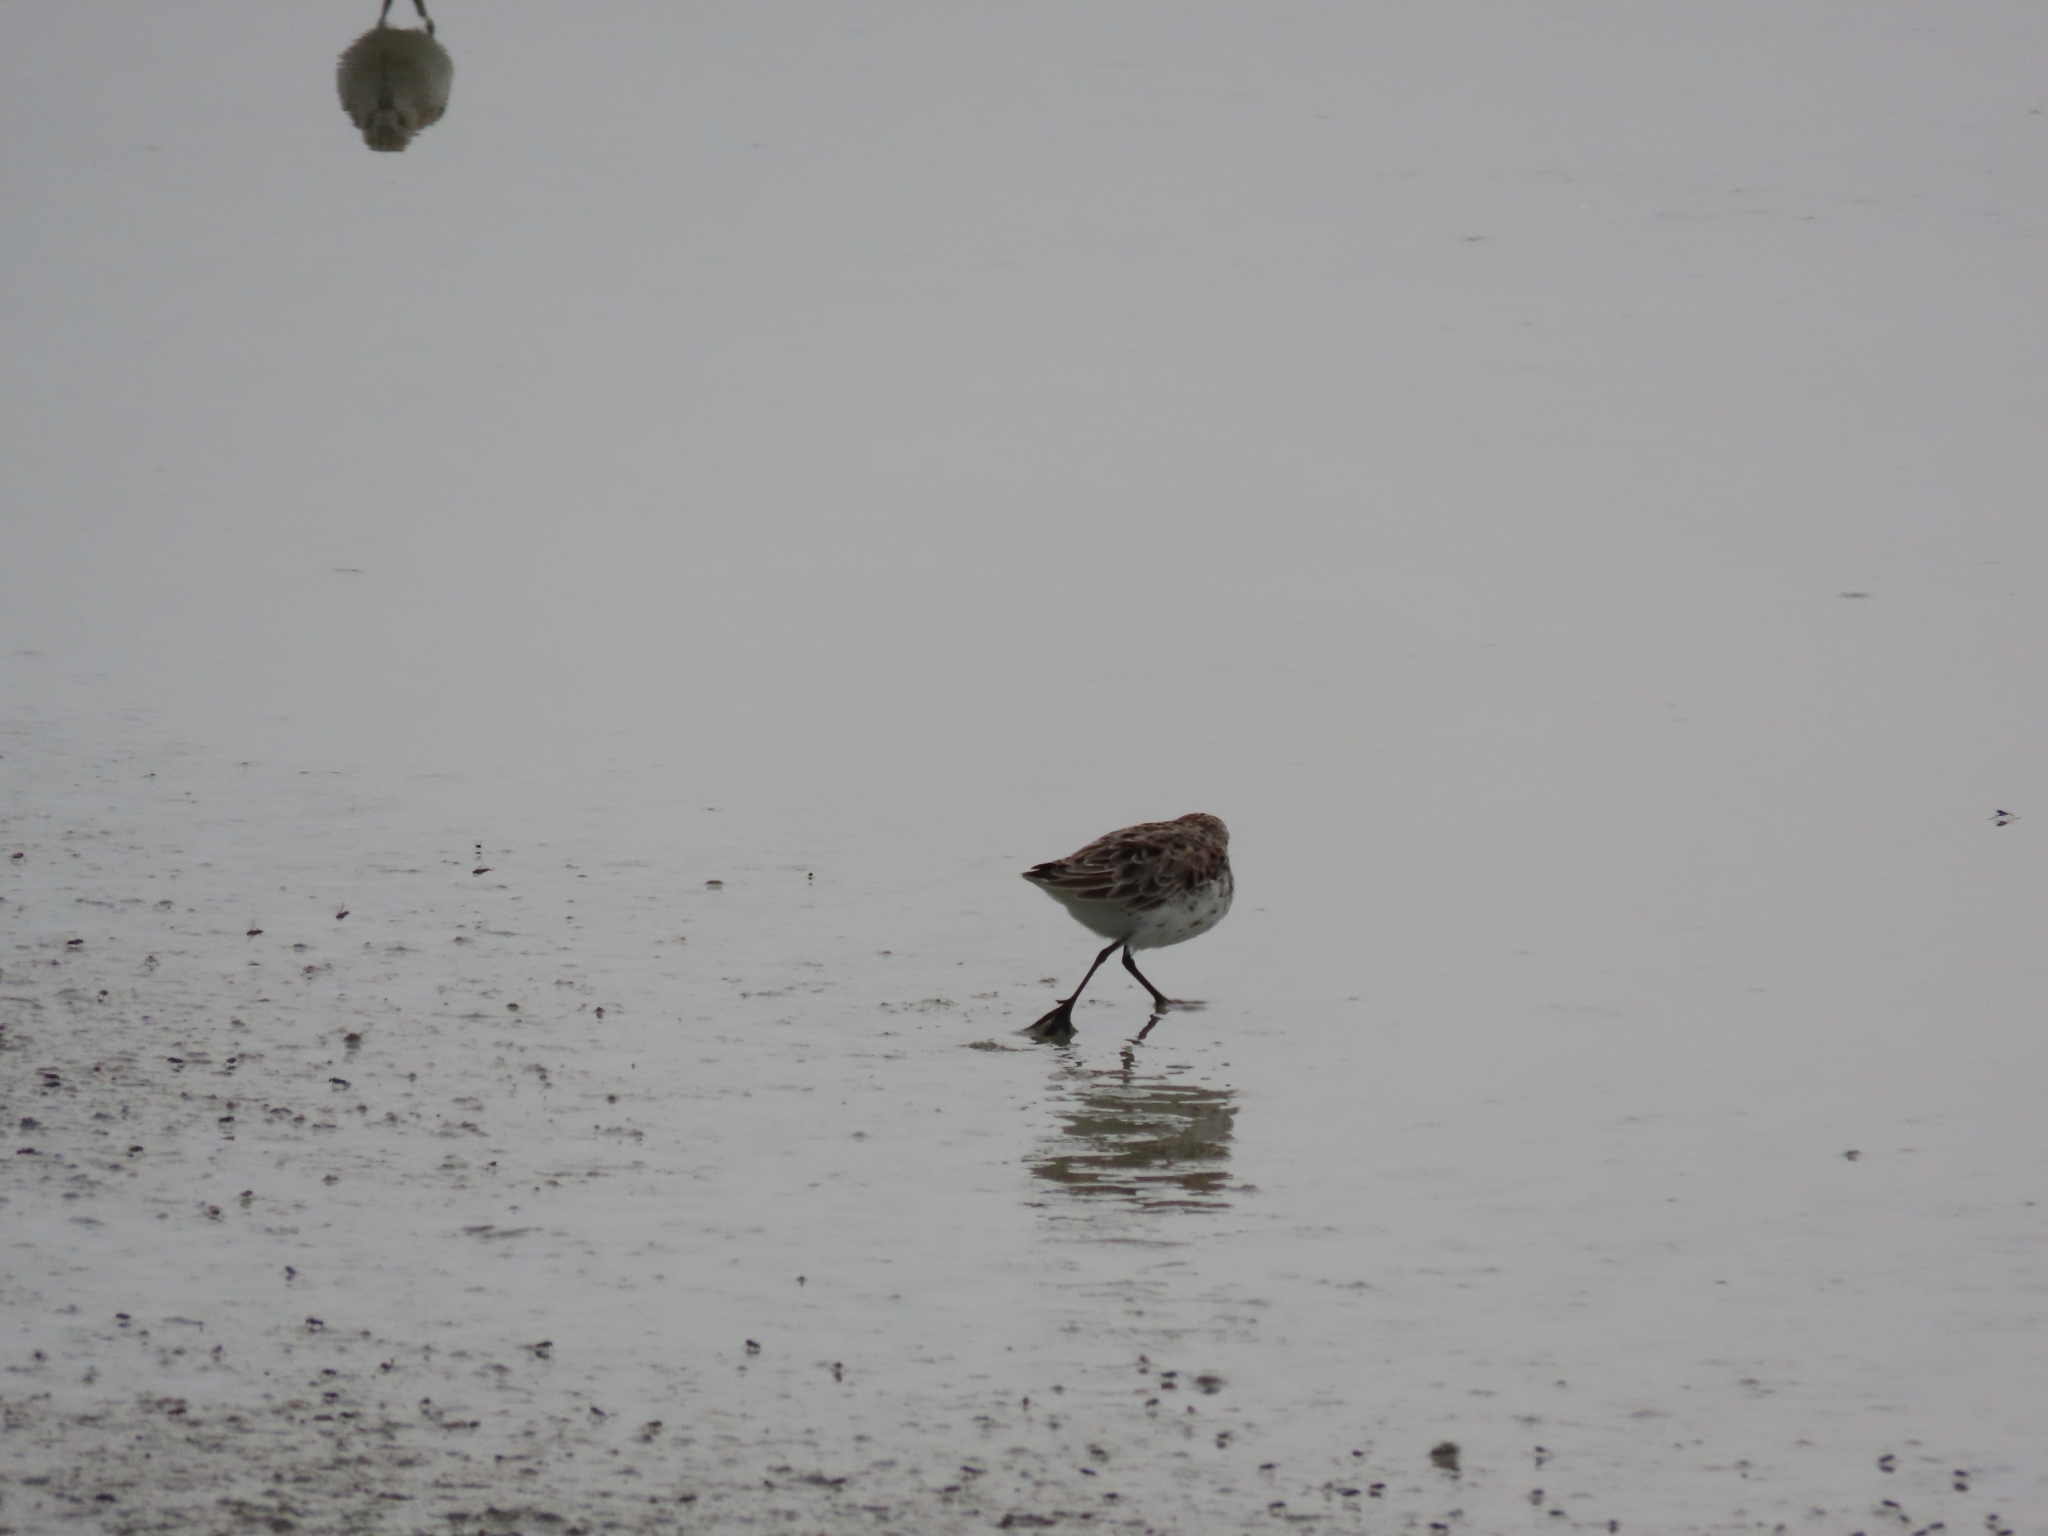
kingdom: Animalia
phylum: Chordata
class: Aves
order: Charadriiformes
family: Scolopacidae
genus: Calidris
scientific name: Calidris mauri
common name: Western sandpiper
